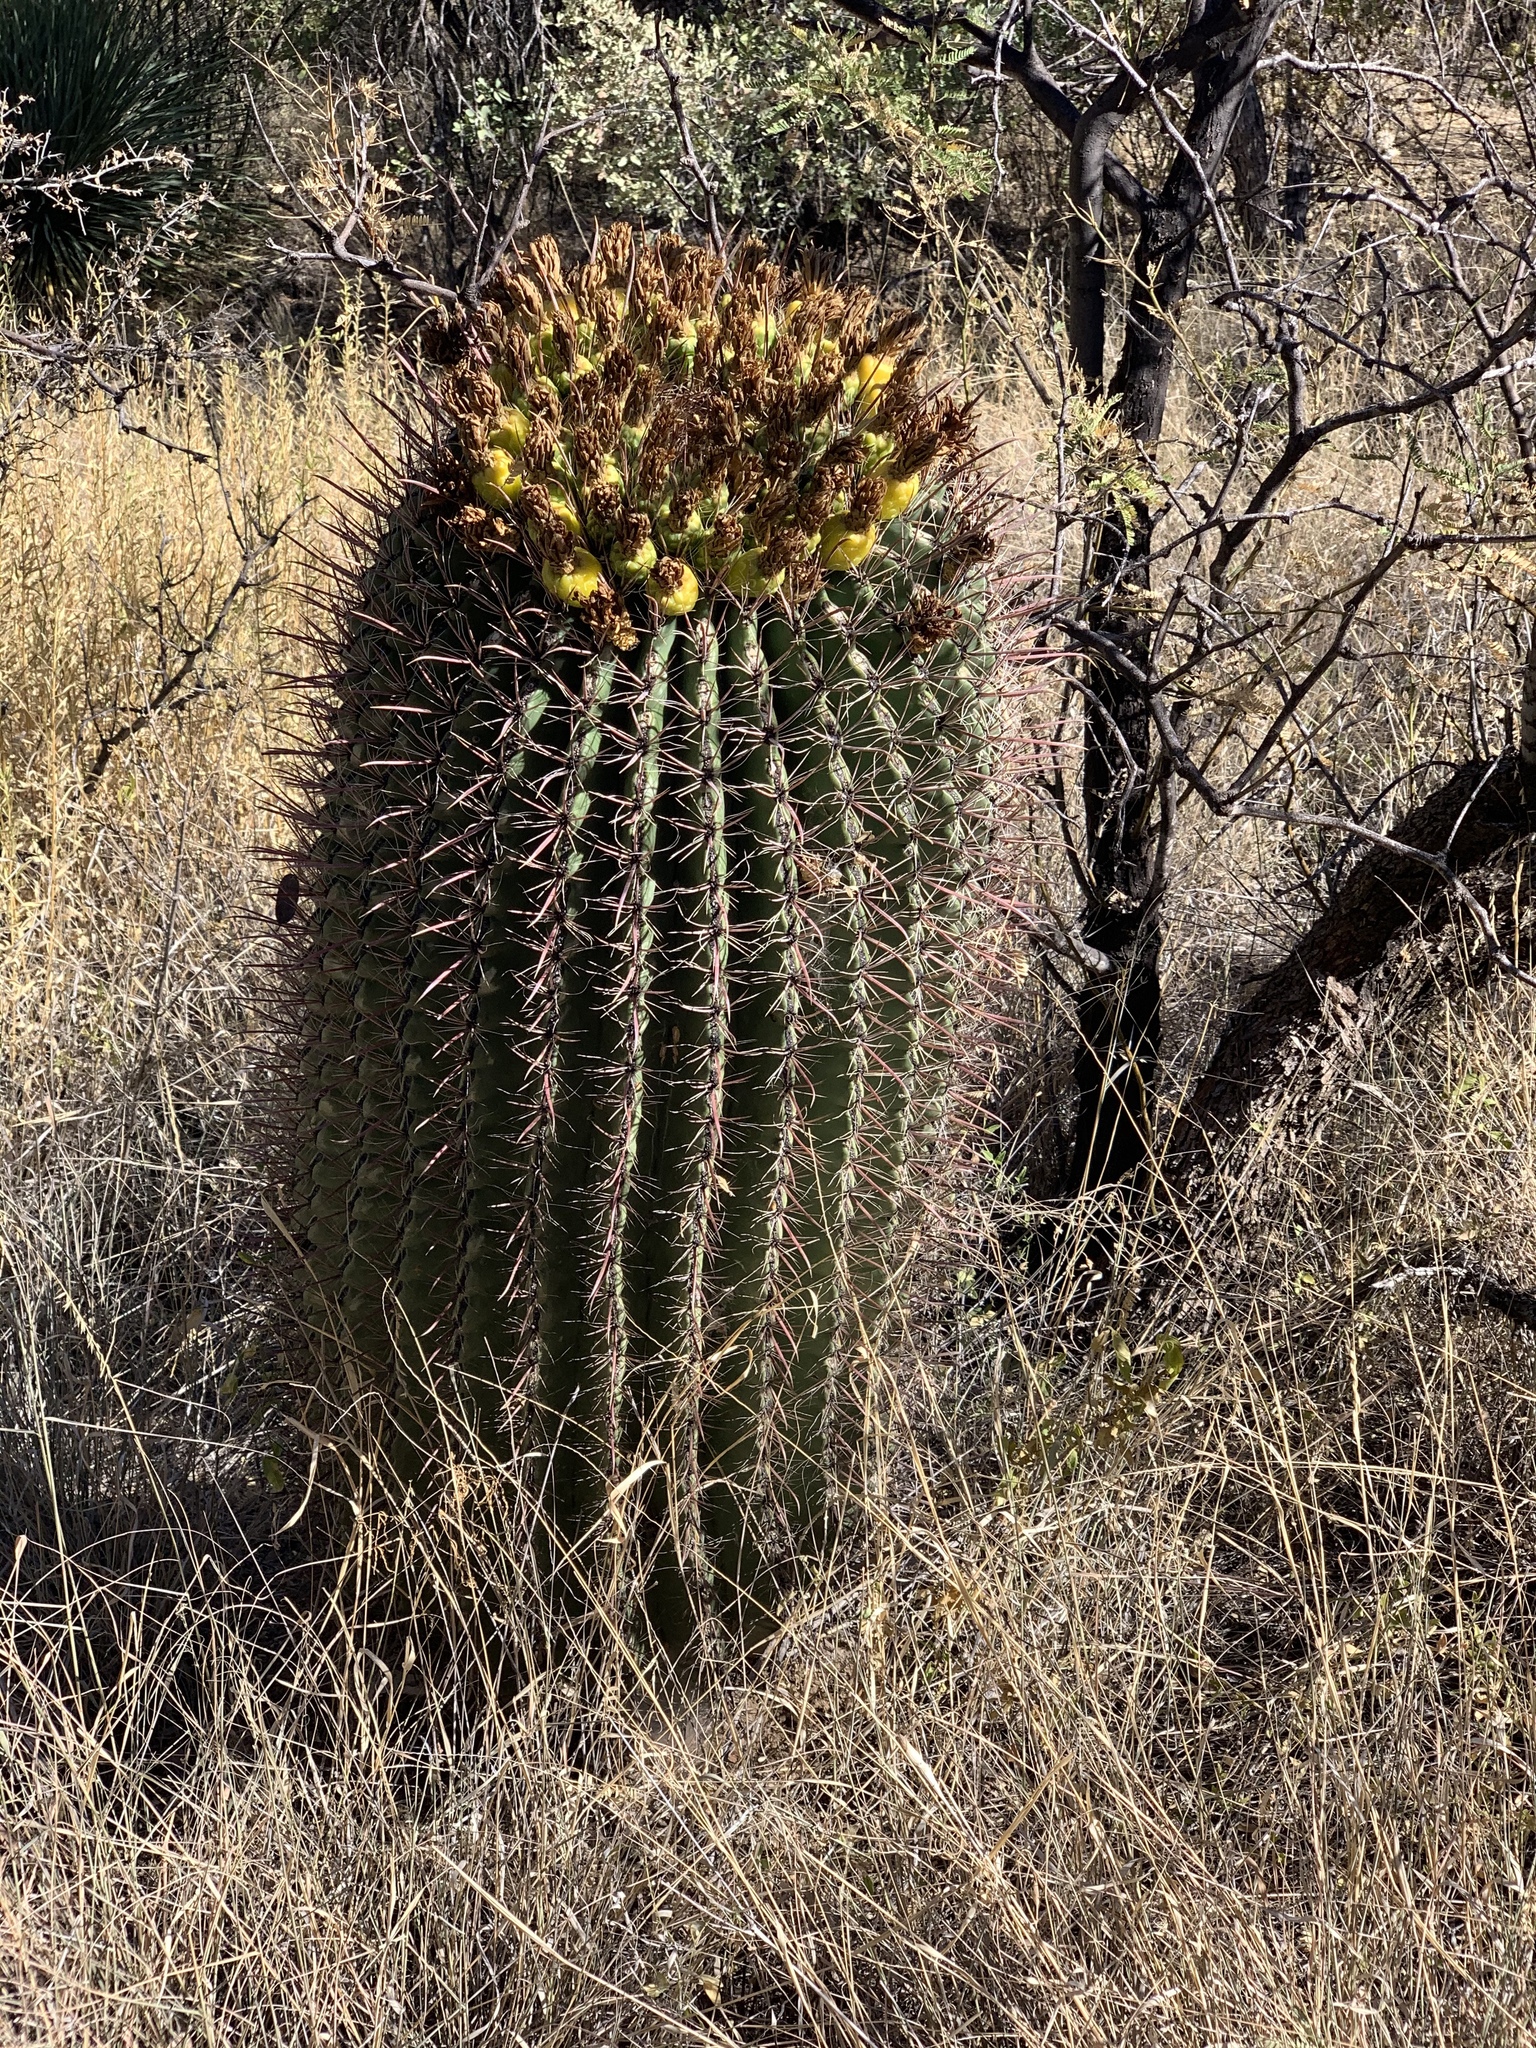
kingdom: Plantae
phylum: Tracheophyta
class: Magnoliopsida
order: Caryophyllales
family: Cactaceae
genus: Ferocactus
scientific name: Ferocactus wislizeni
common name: Candy barrel cactus
